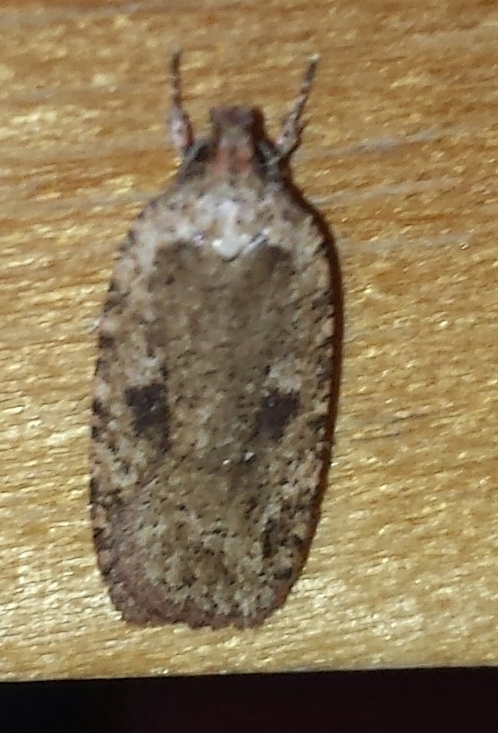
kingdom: Animalia
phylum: Arthropoda
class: Insecta
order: Lepidoptera
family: Depressariidae
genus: Agonopterix
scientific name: Agonopterix pulvipennella
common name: Goldenrod leafffolder
